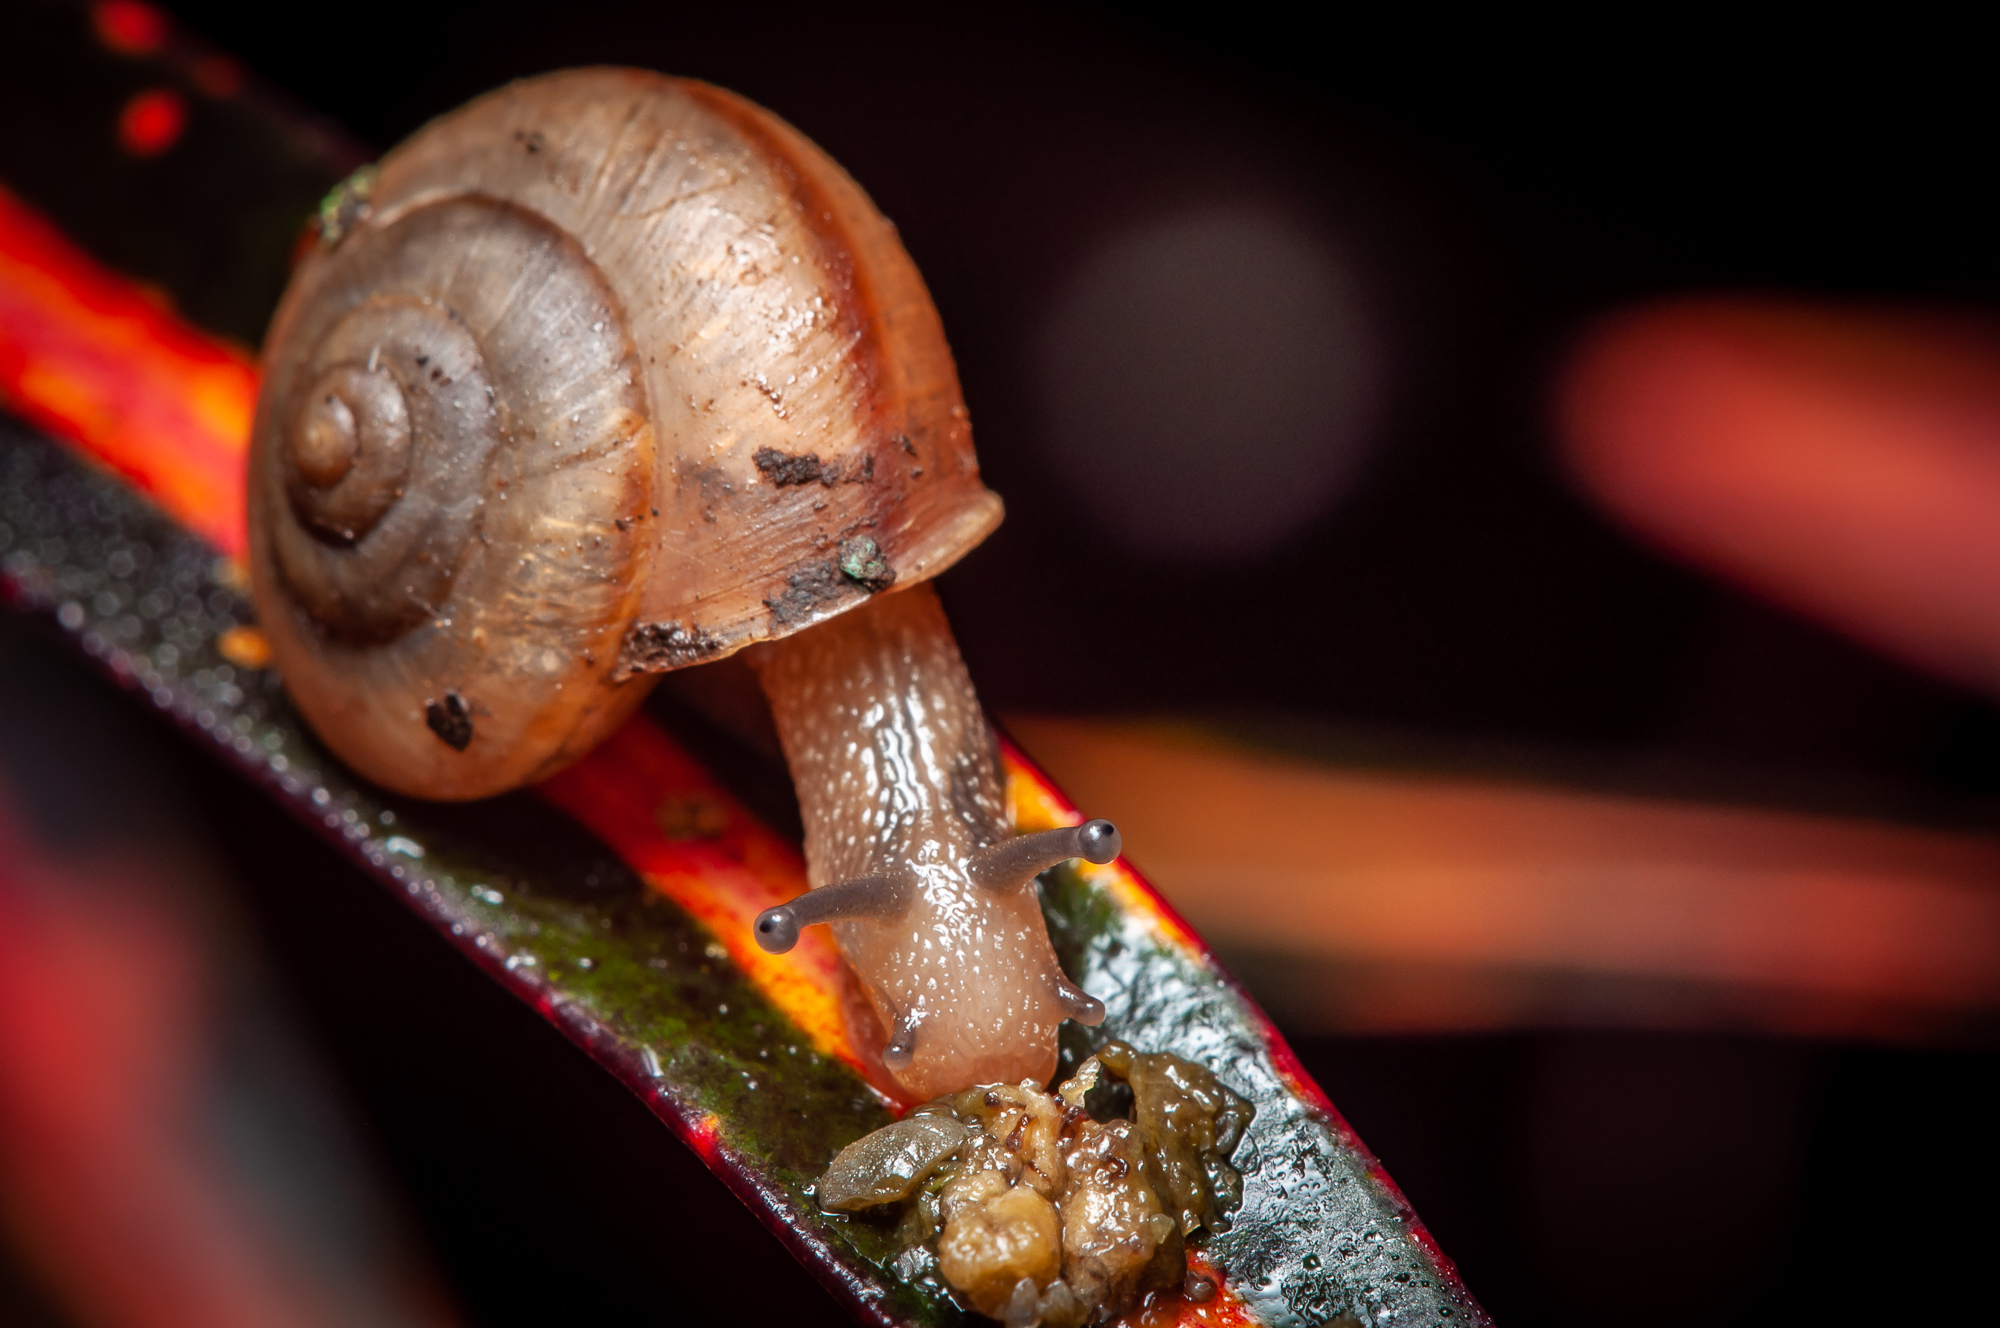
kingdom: Animalia
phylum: Mollusca
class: Gastropoda
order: Stylommatophora
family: Camaenidae
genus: Bradybaena
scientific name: Bradybaena similaris
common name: Asian trampsnail
